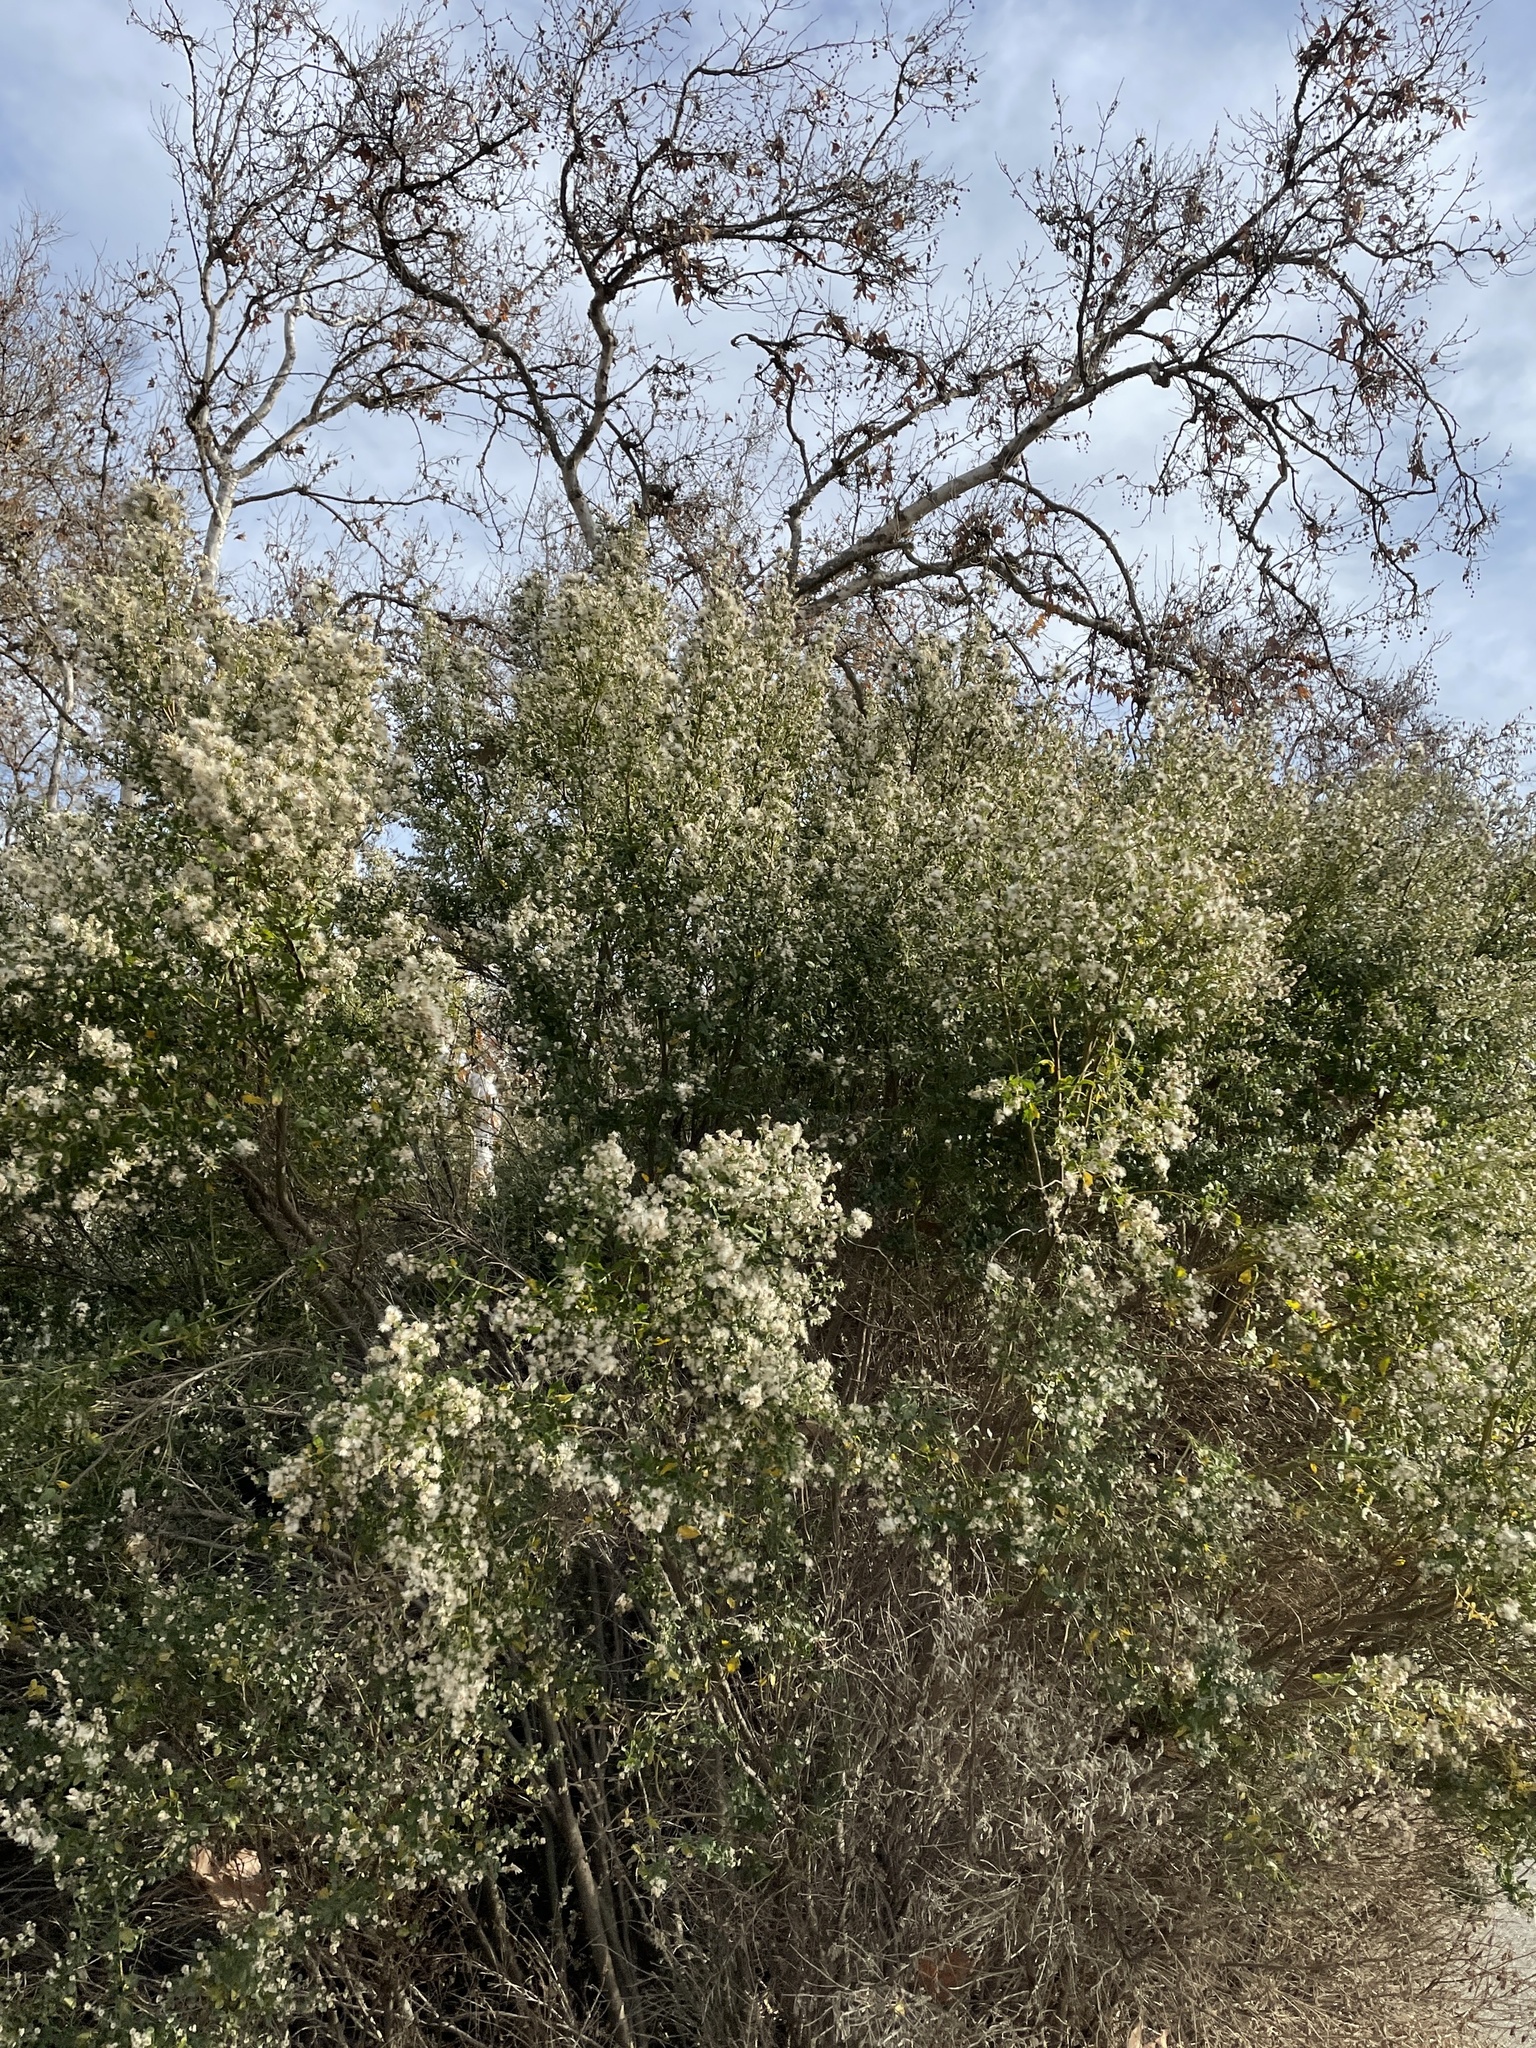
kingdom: Plantae
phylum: Tracheophyta
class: Magnoliopsida
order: Asterales
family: Asteraceae
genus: Baccharis
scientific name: Baccharis pilularis
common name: Coyotebrush
